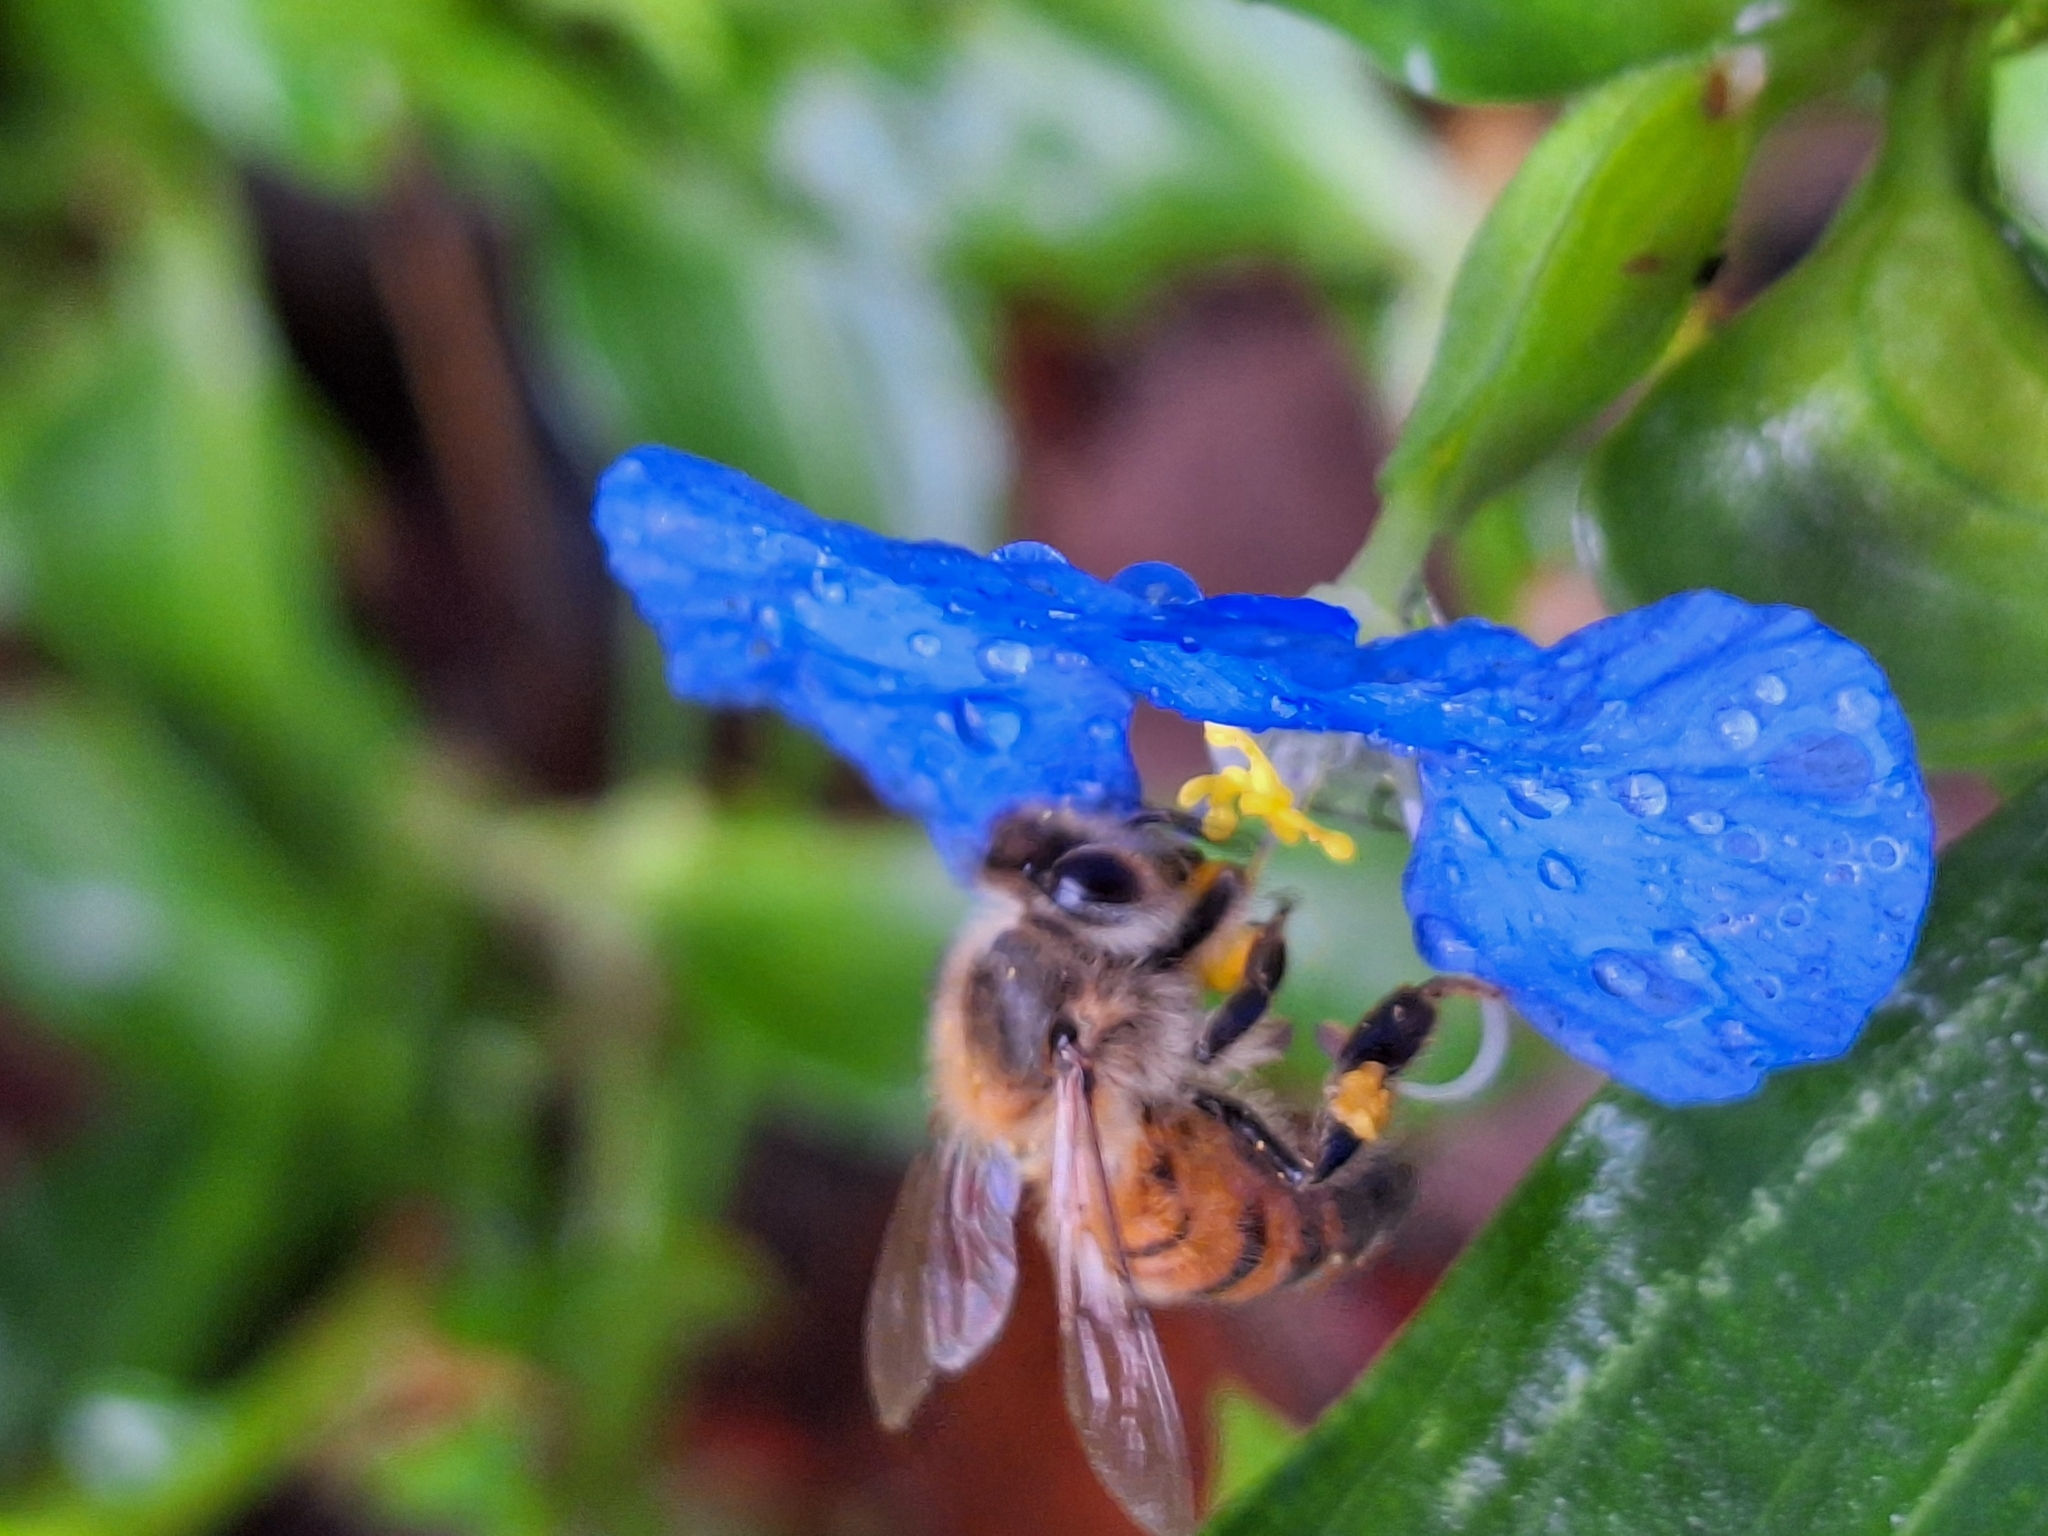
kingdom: Animalia
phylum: Arthropoda
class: Insecta
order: Hymenoptera
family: Apidae
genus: Apis
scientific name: Apis mellifera
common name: Honey bee
